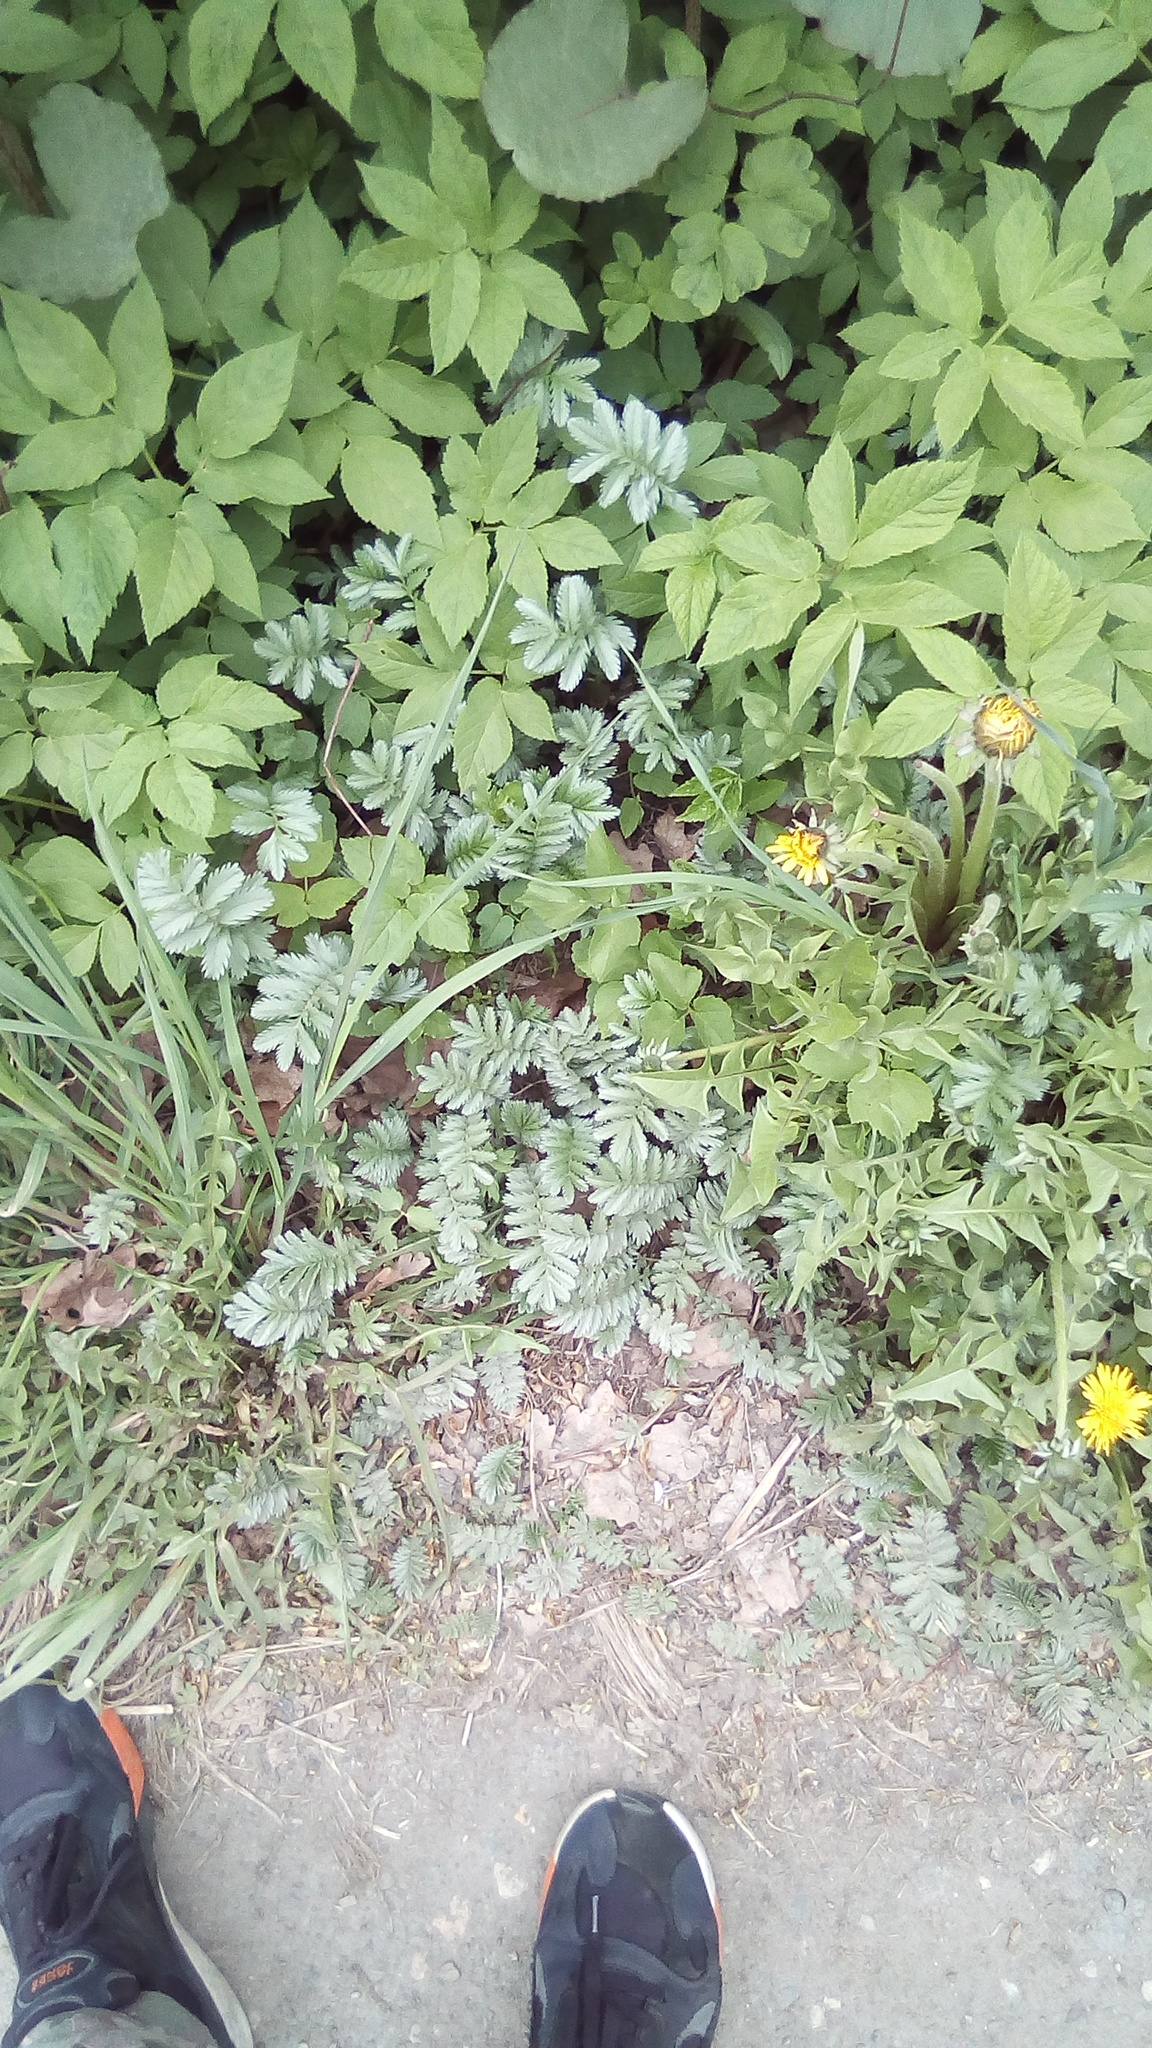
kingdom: Plantae
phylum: Tracheophyta
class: Magnoliopsida
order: Rosales
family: Rosaceae
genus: Argentina
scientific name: Argentina anserina
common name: Common silverweed
